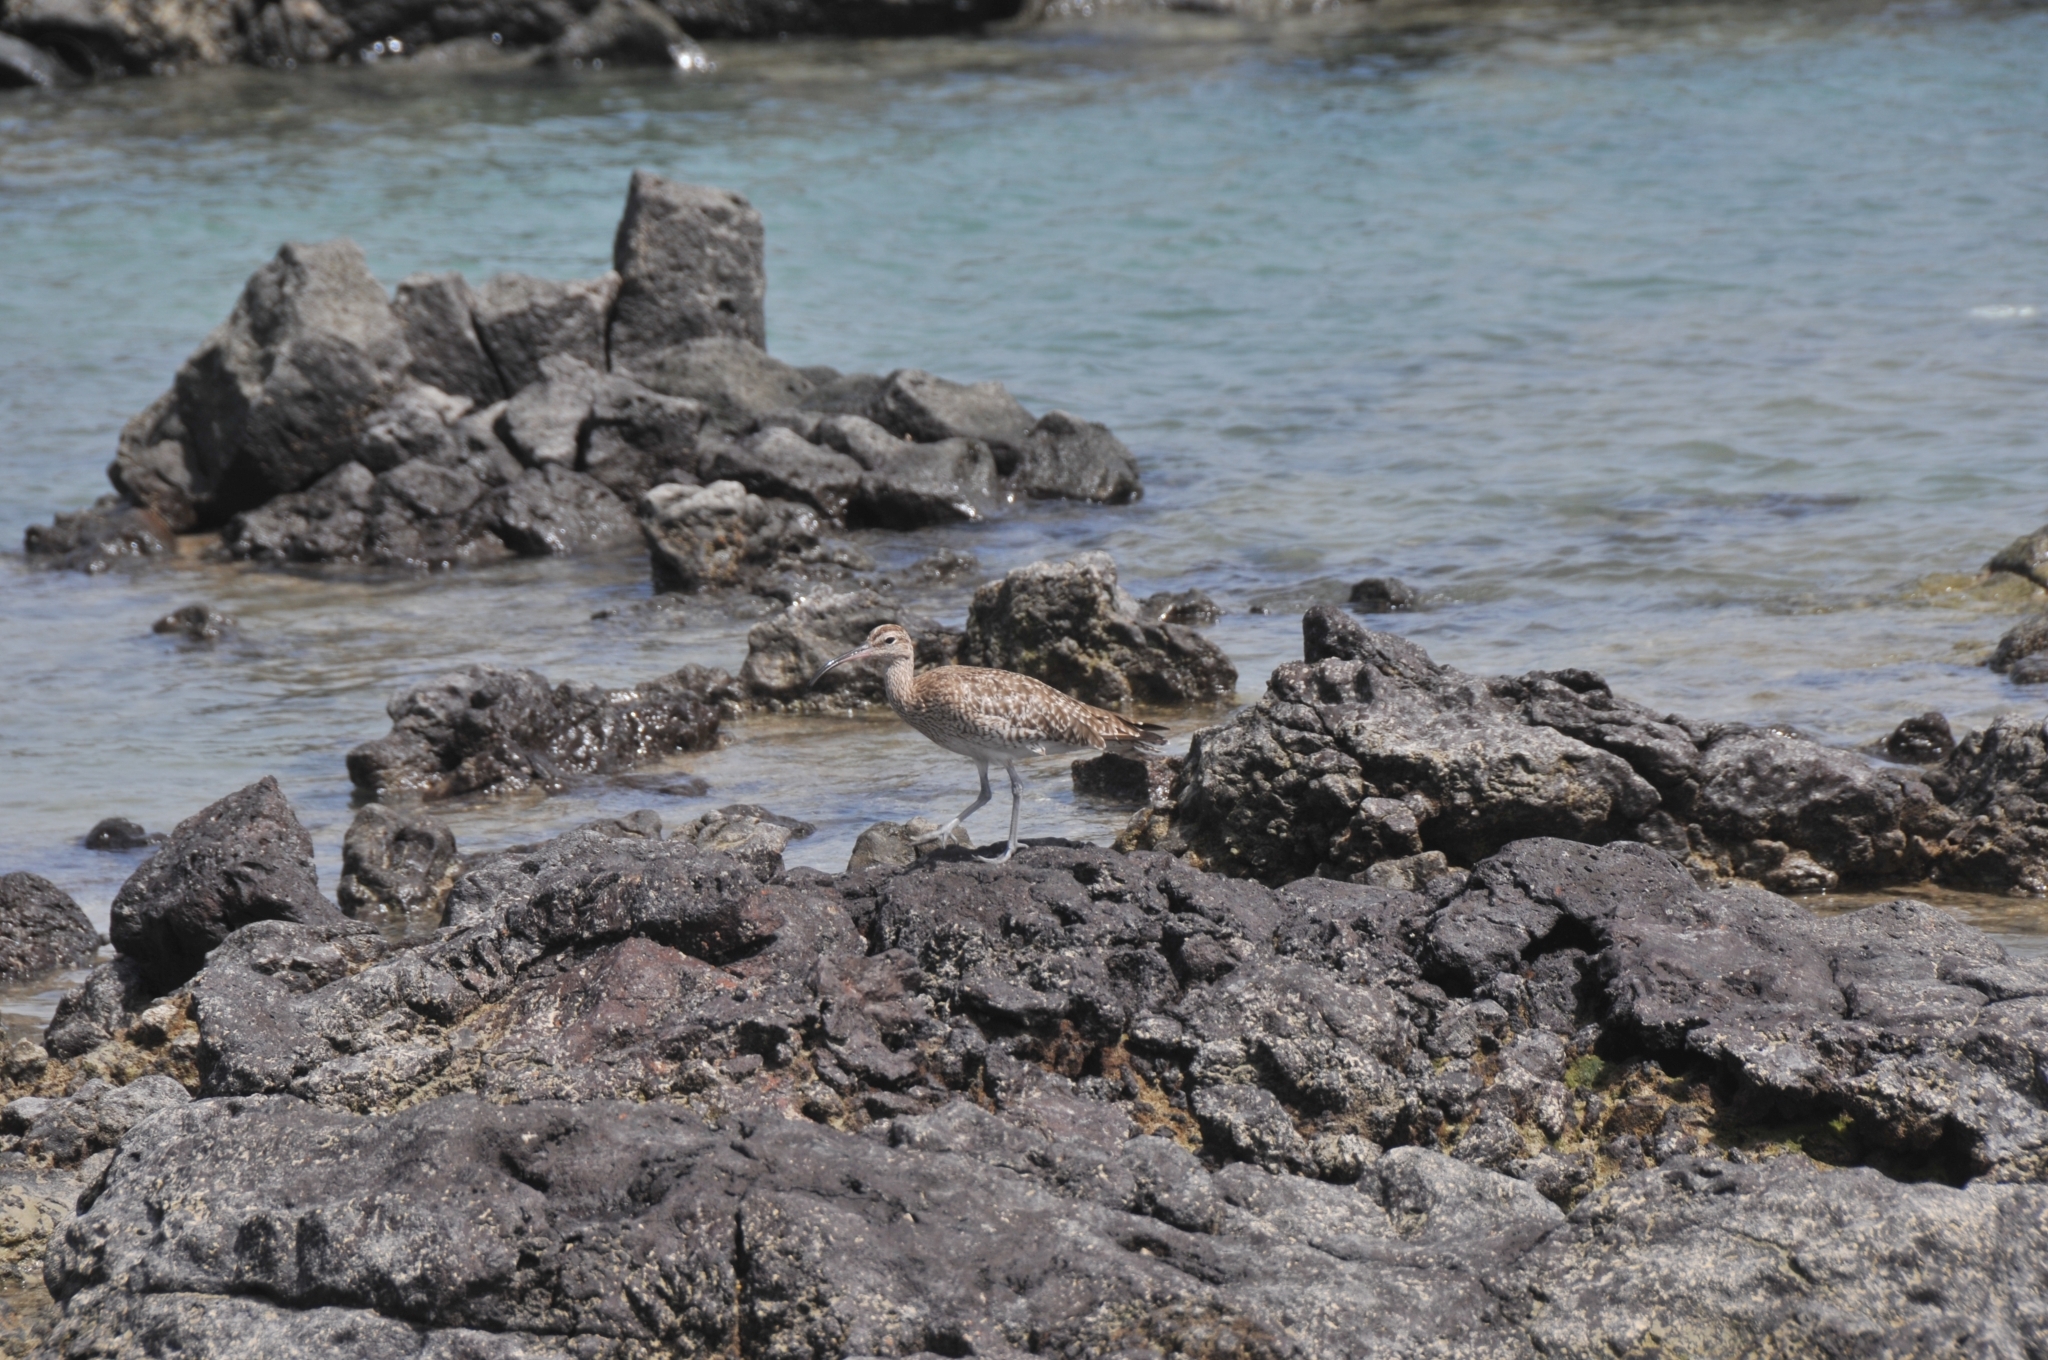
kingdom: Animalia
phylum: Chordata
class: Aves
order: Charadriiformes
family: Scolopacidae
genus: Numenius
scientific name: Numenius phaeopus
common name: Whimbrel
